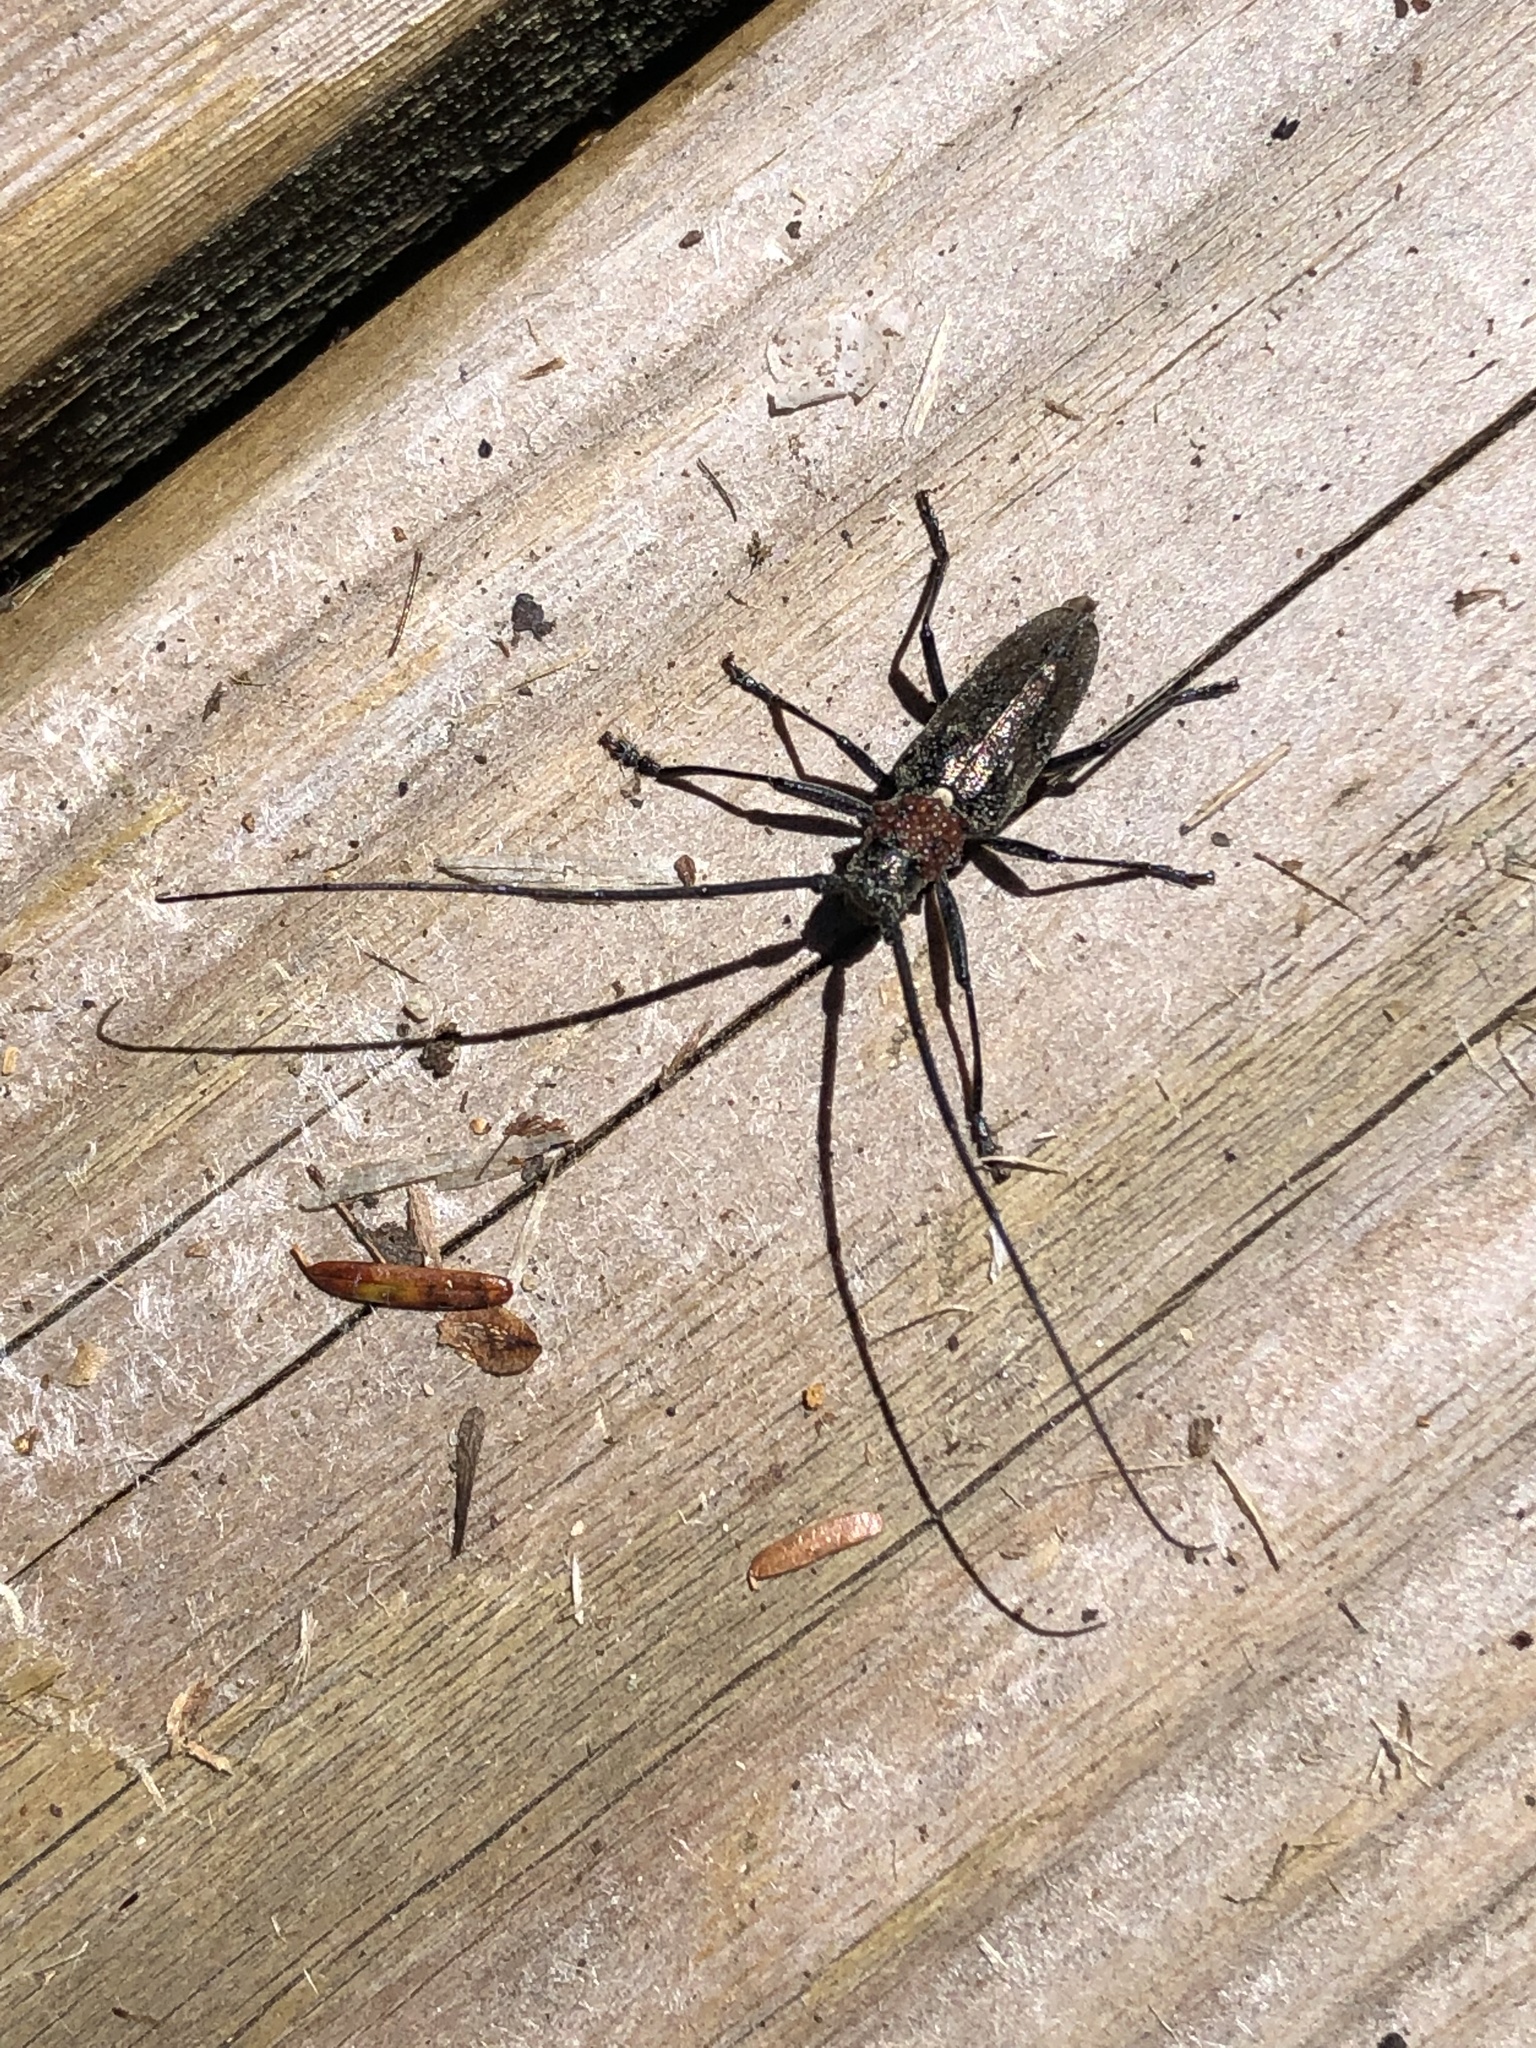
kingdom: Animalia
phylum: Arthropoda
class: Insecta
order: Coleoptera
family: Cerambycidae
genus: Monochamus
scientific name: Monochamus scutellatus
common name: White-spotted sawyer beetle
